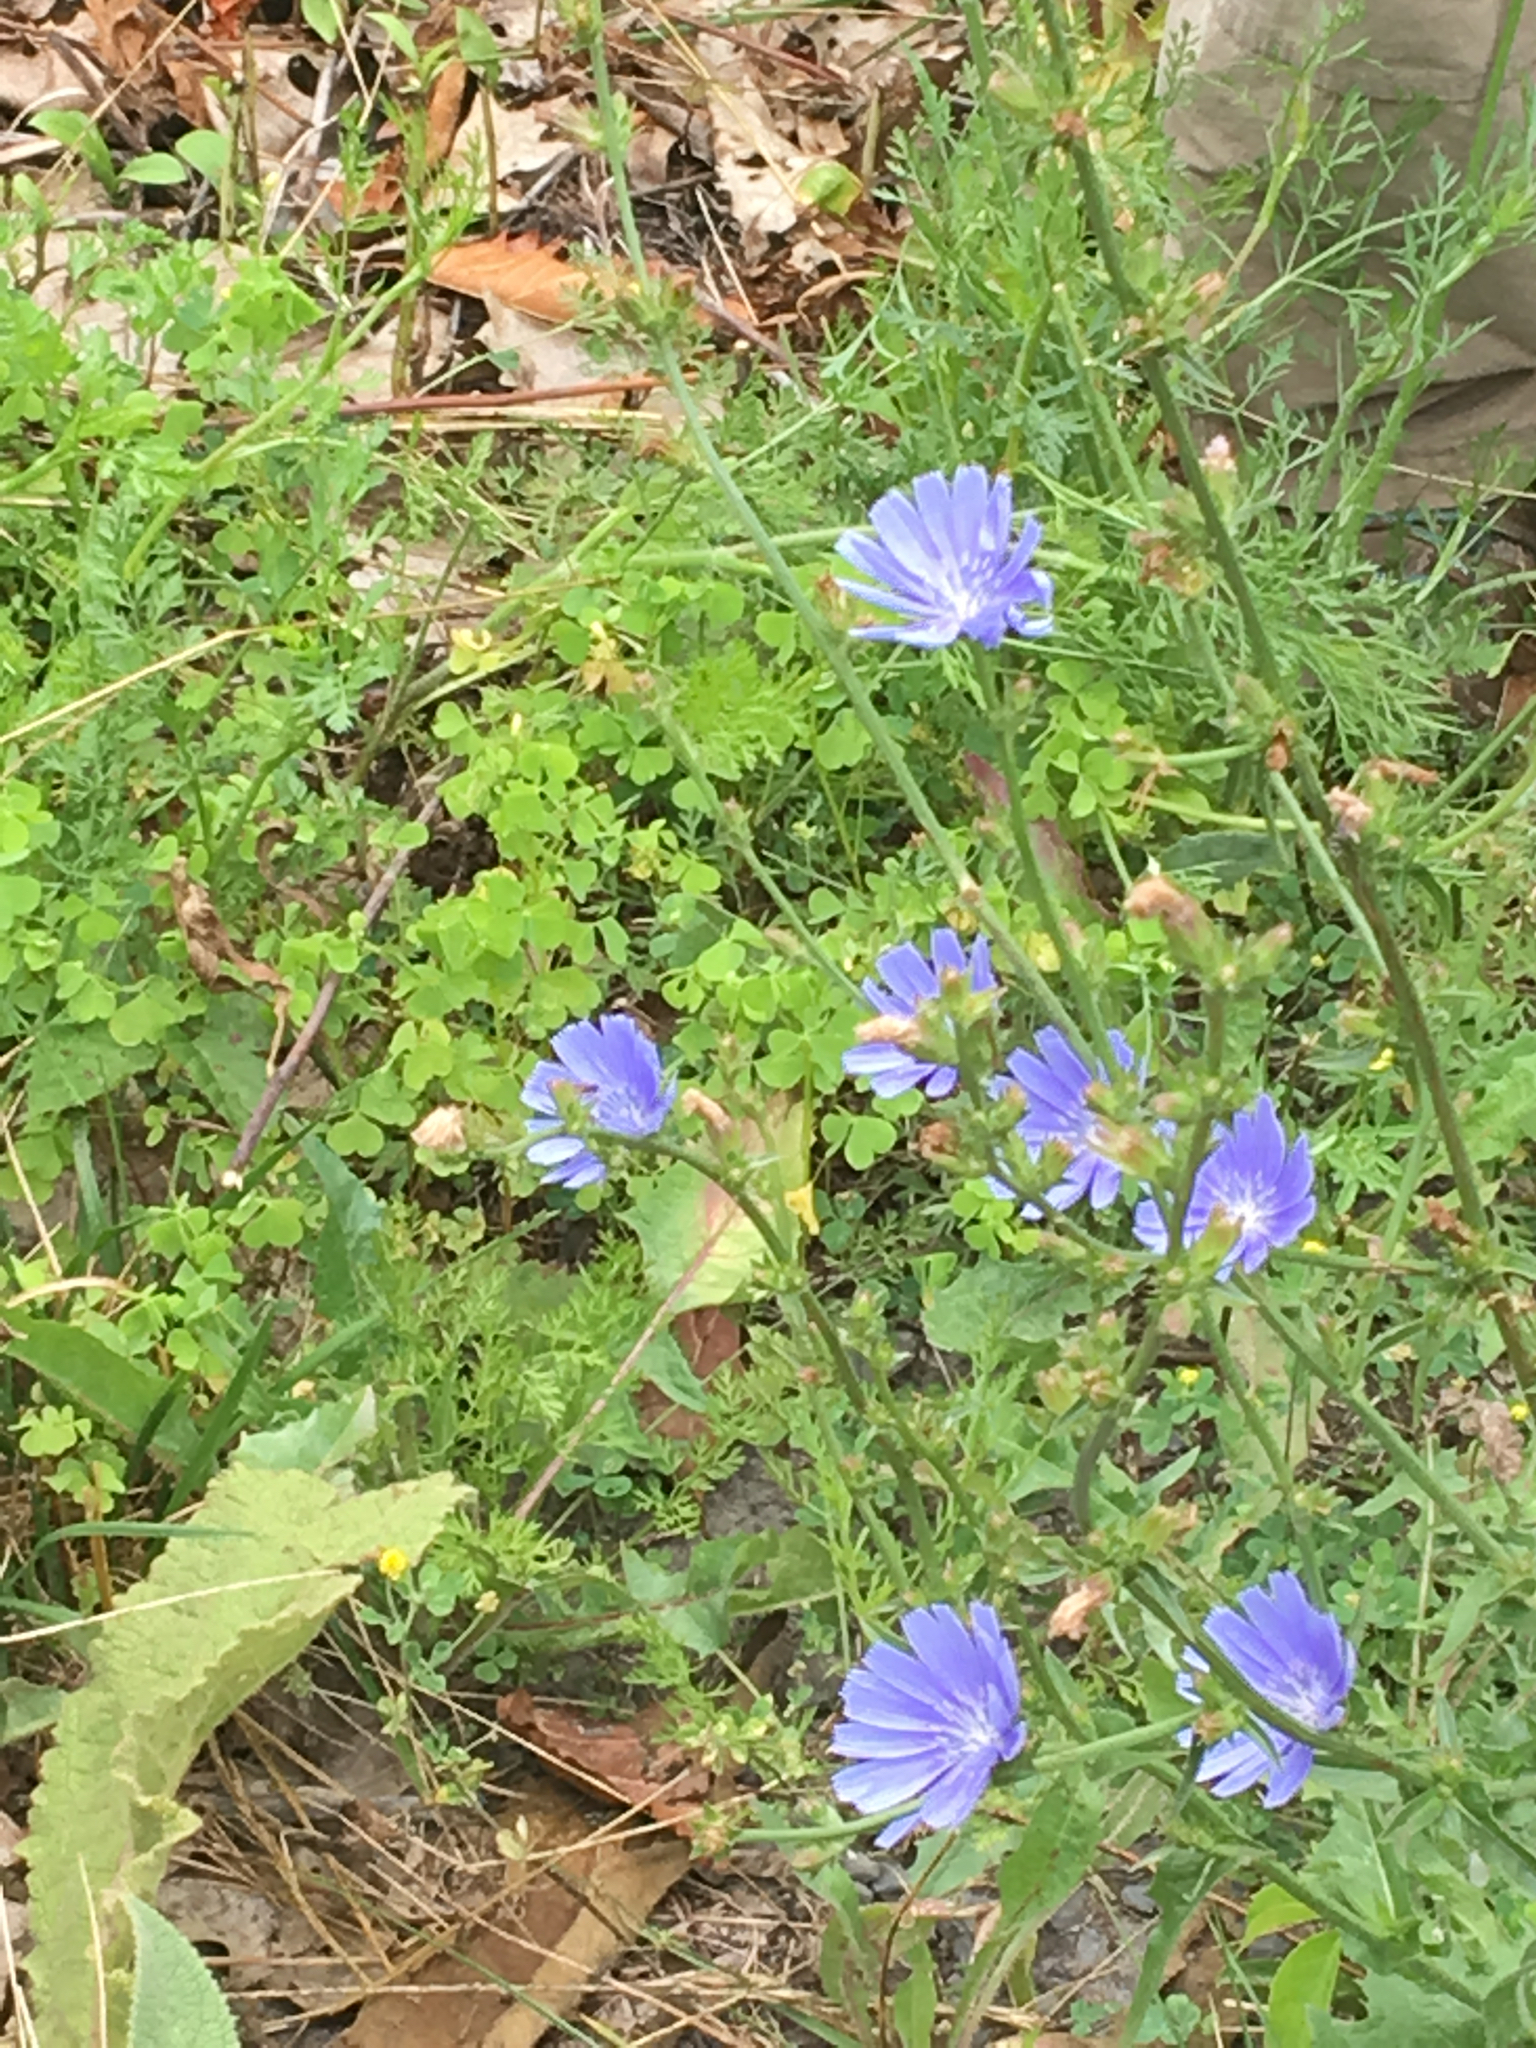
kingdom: Plantae
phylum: Tracheophyta
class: Magnoliopsida
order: Asterales
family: Asteraceae
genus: Cichorium
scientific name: Cichorium intybus
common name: Chicory
